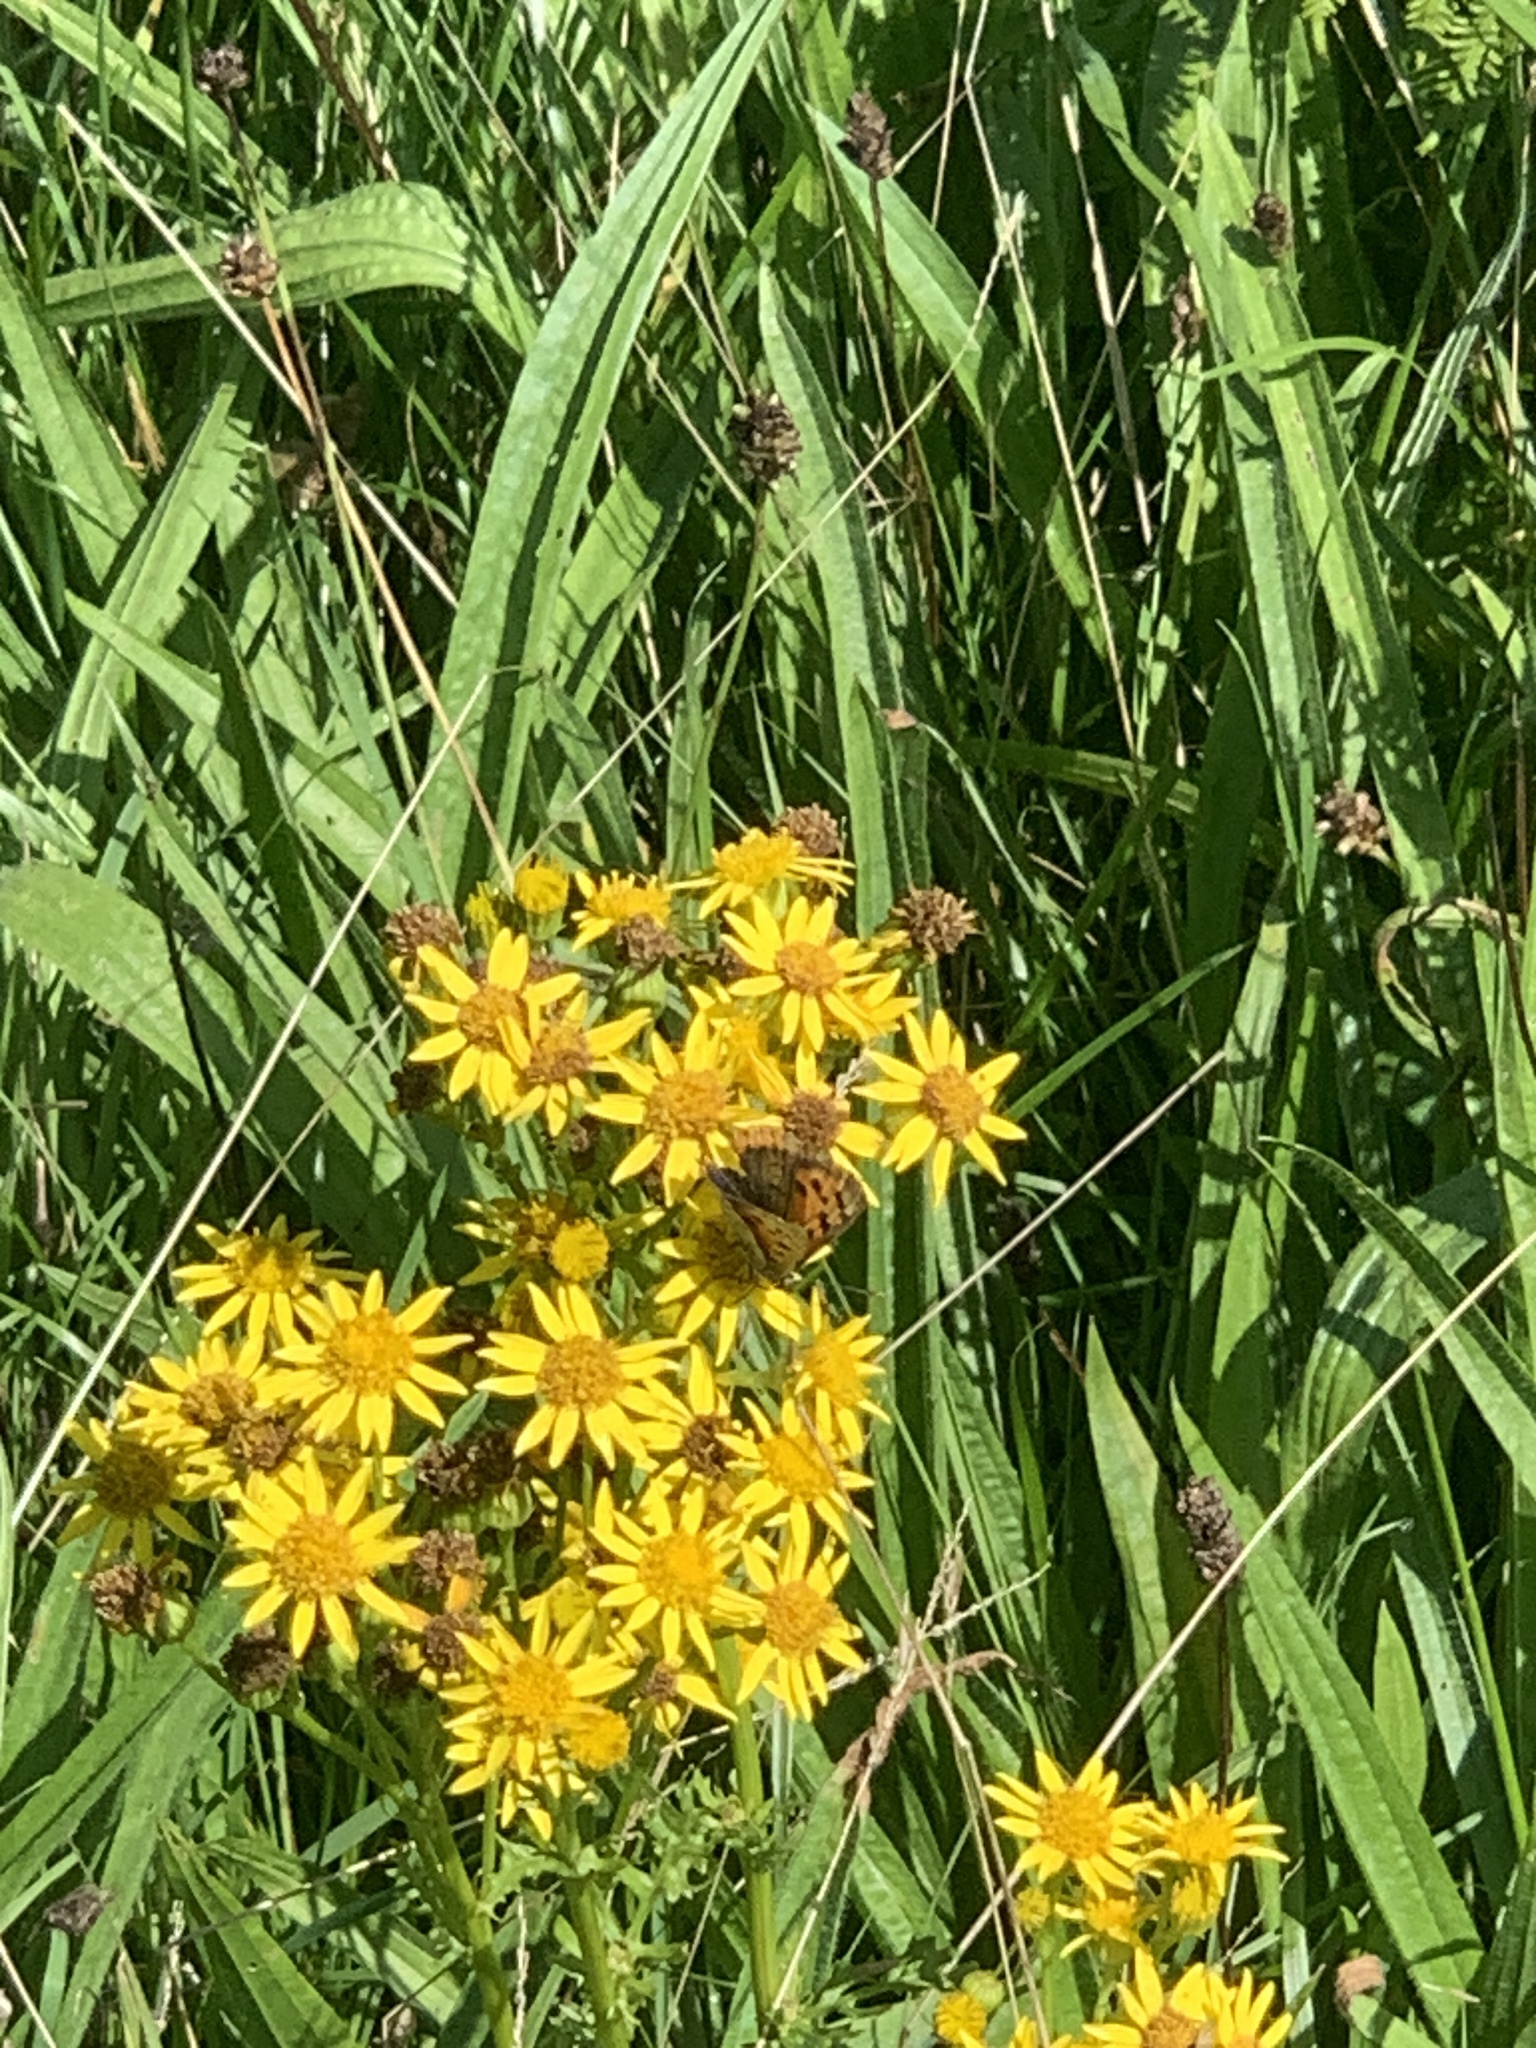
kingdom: Animalia
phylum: Arthropoda
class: Insecta
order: Lepidoptera
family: Lycaenidae
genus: Lycaena
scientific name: Lycaena phlaeas
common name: Small copper
